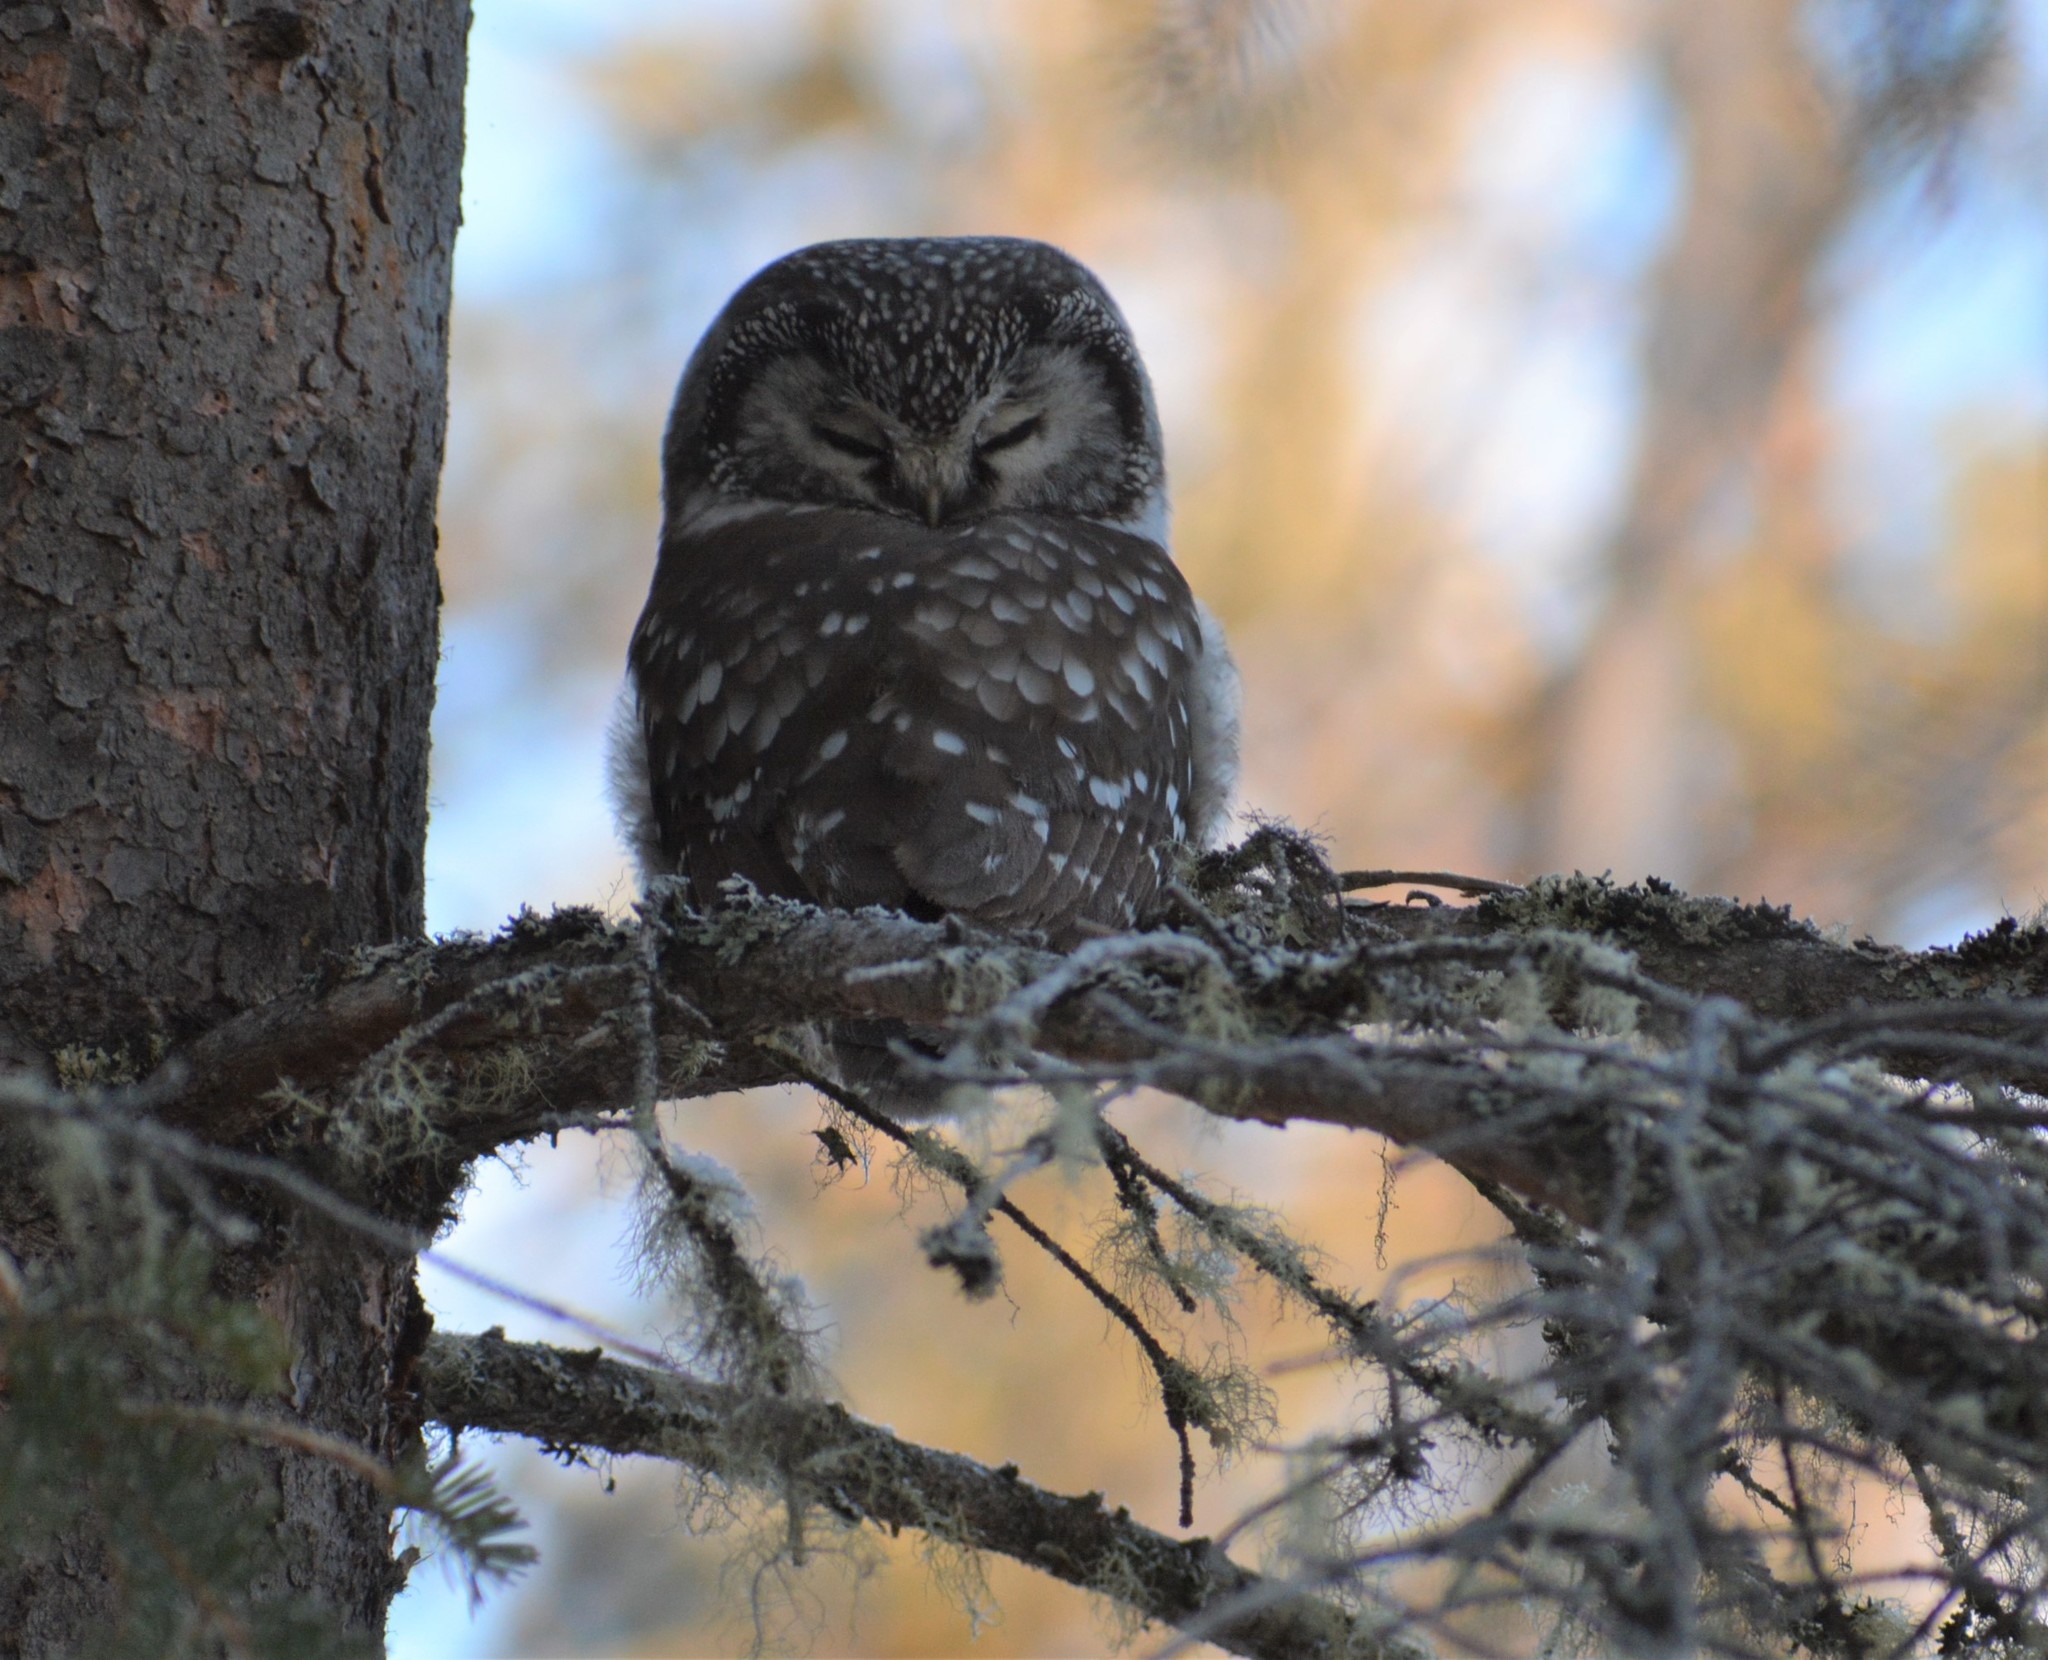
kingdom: Animalia
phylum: Chordata
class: Aves
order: Strigiformes
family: Strigidae
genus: Aegolius
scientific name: Aegolius funereus
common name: Boreal owl
